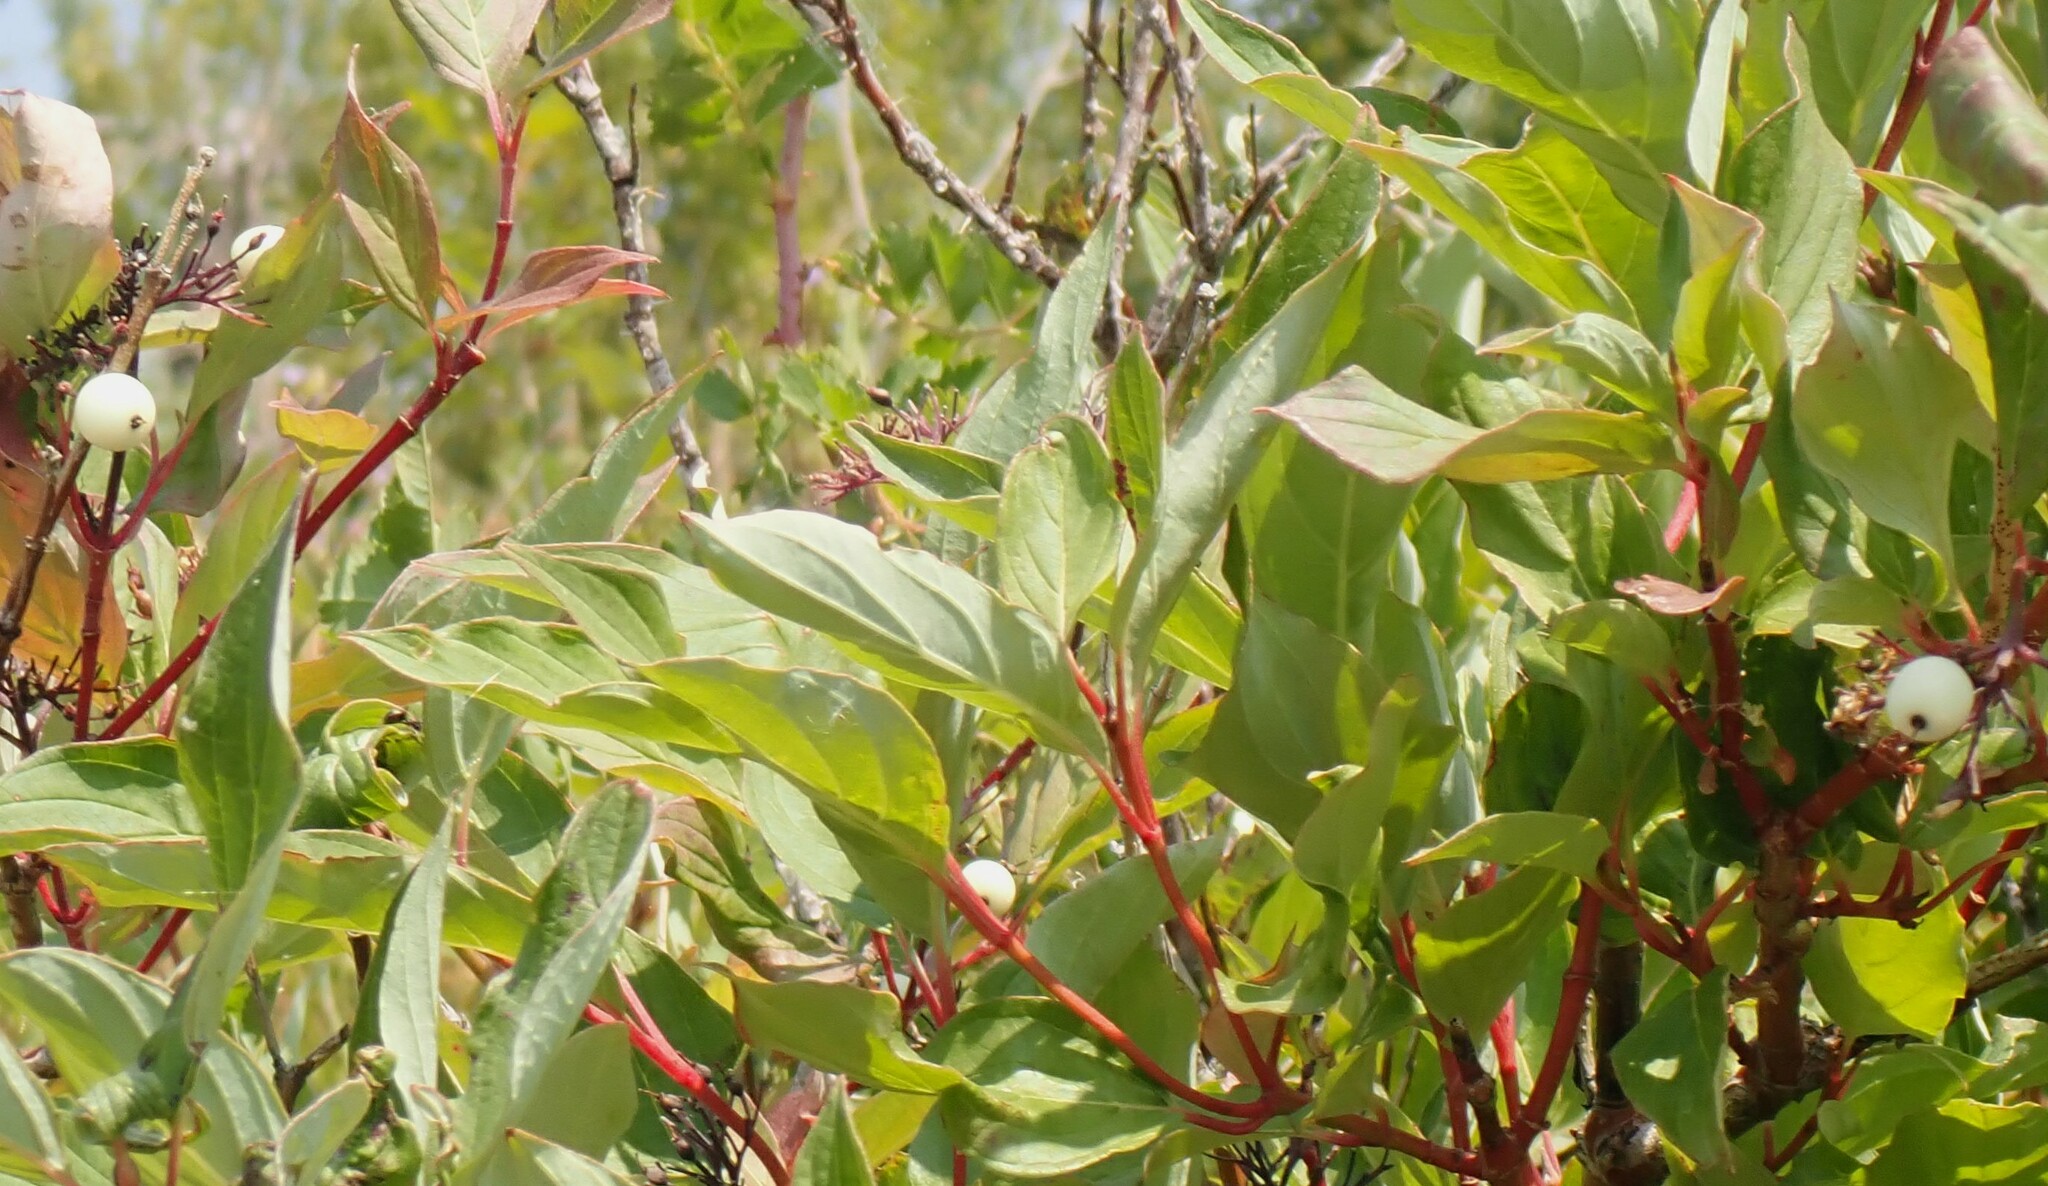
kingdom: Plantae
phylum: Tracheophyta
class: Magnoliopsida
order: Cornales
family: Cornaceae
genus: Cornus
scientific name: Cornus sericea
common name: Red-osier dogwood
